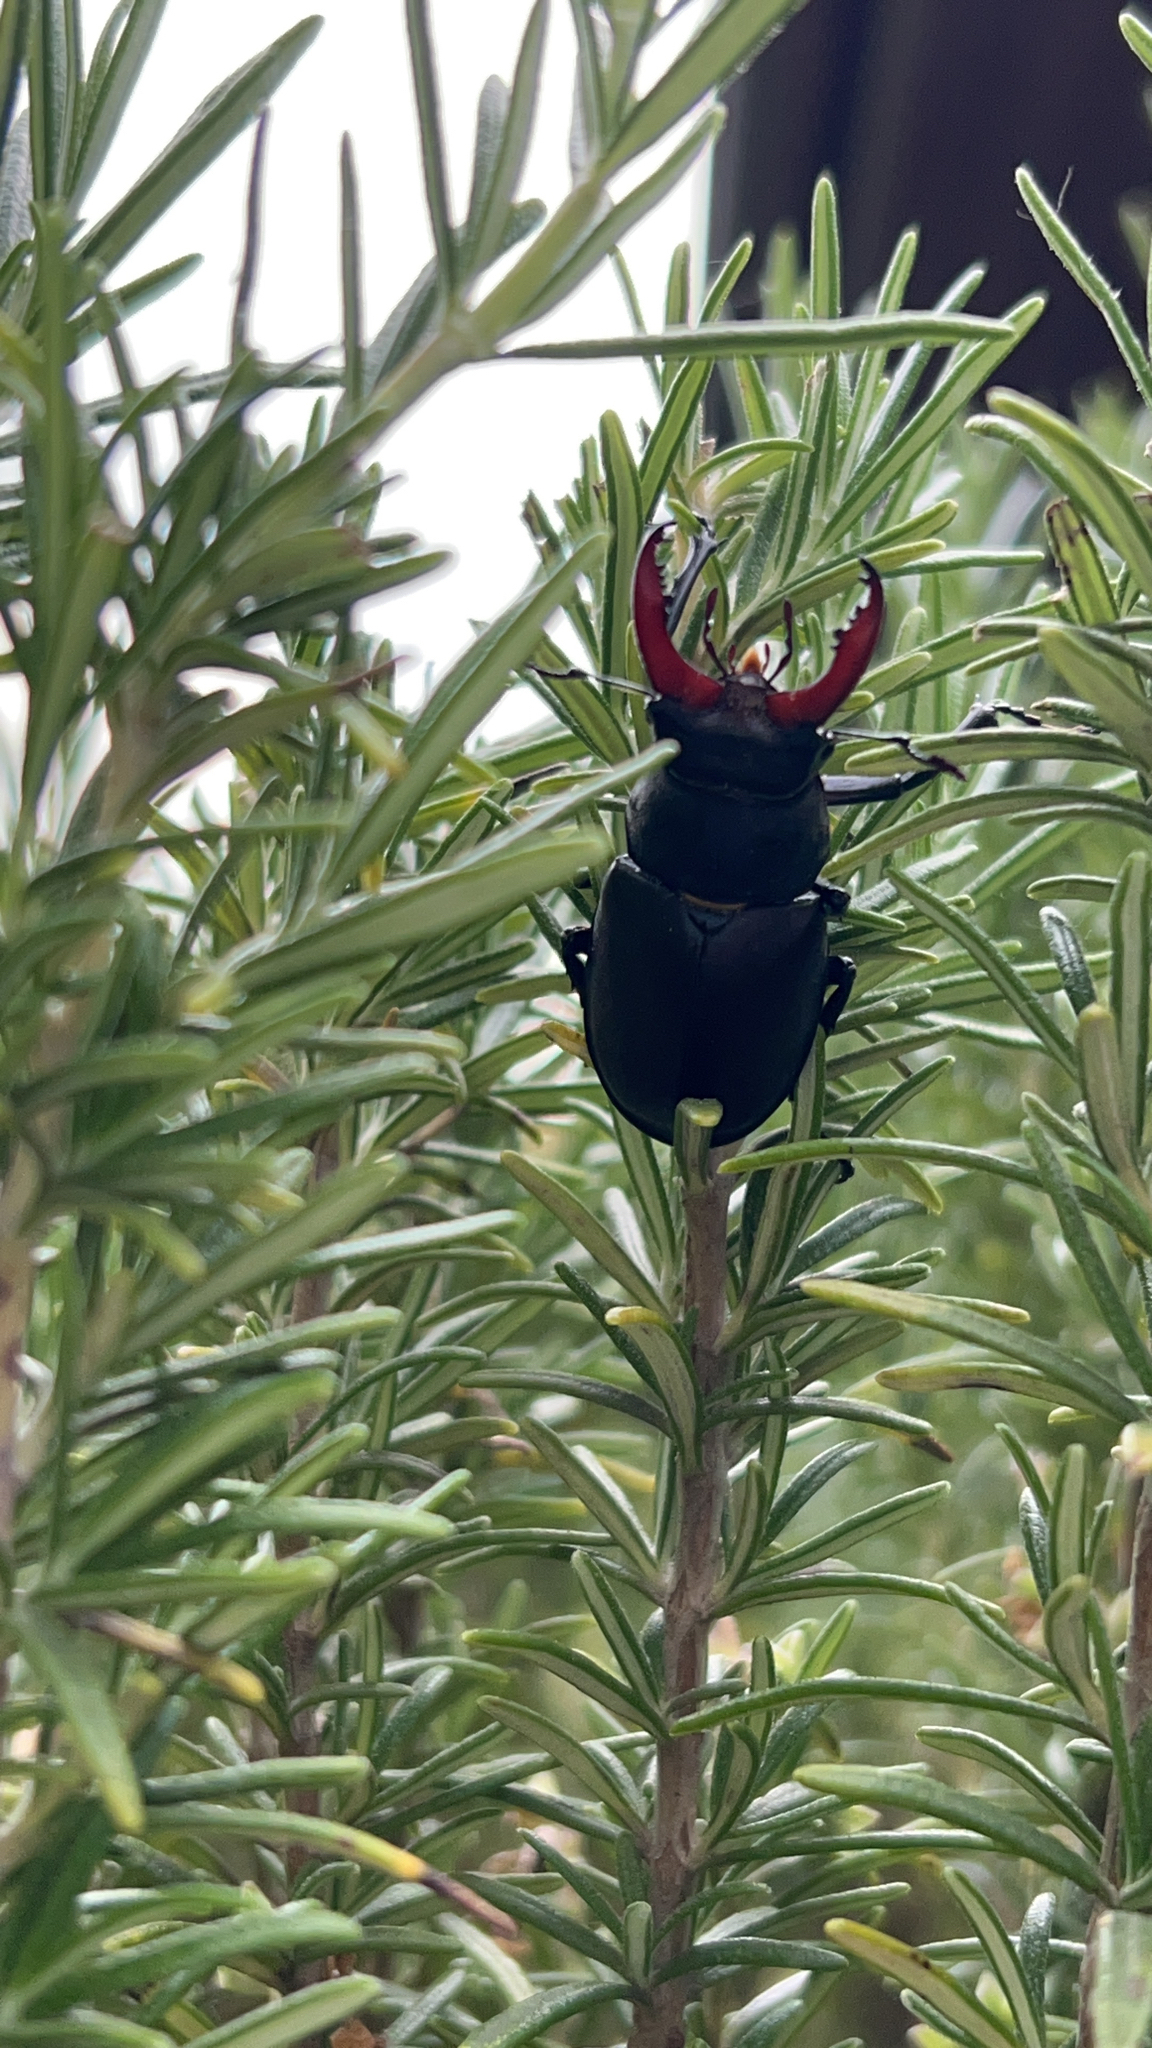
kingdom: Animalia
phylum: Arthropoda
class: Insecta
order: Coleoptera
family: Lucanidae
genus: Lucanus
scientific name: Lucanus cervus
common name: Stag beetle
